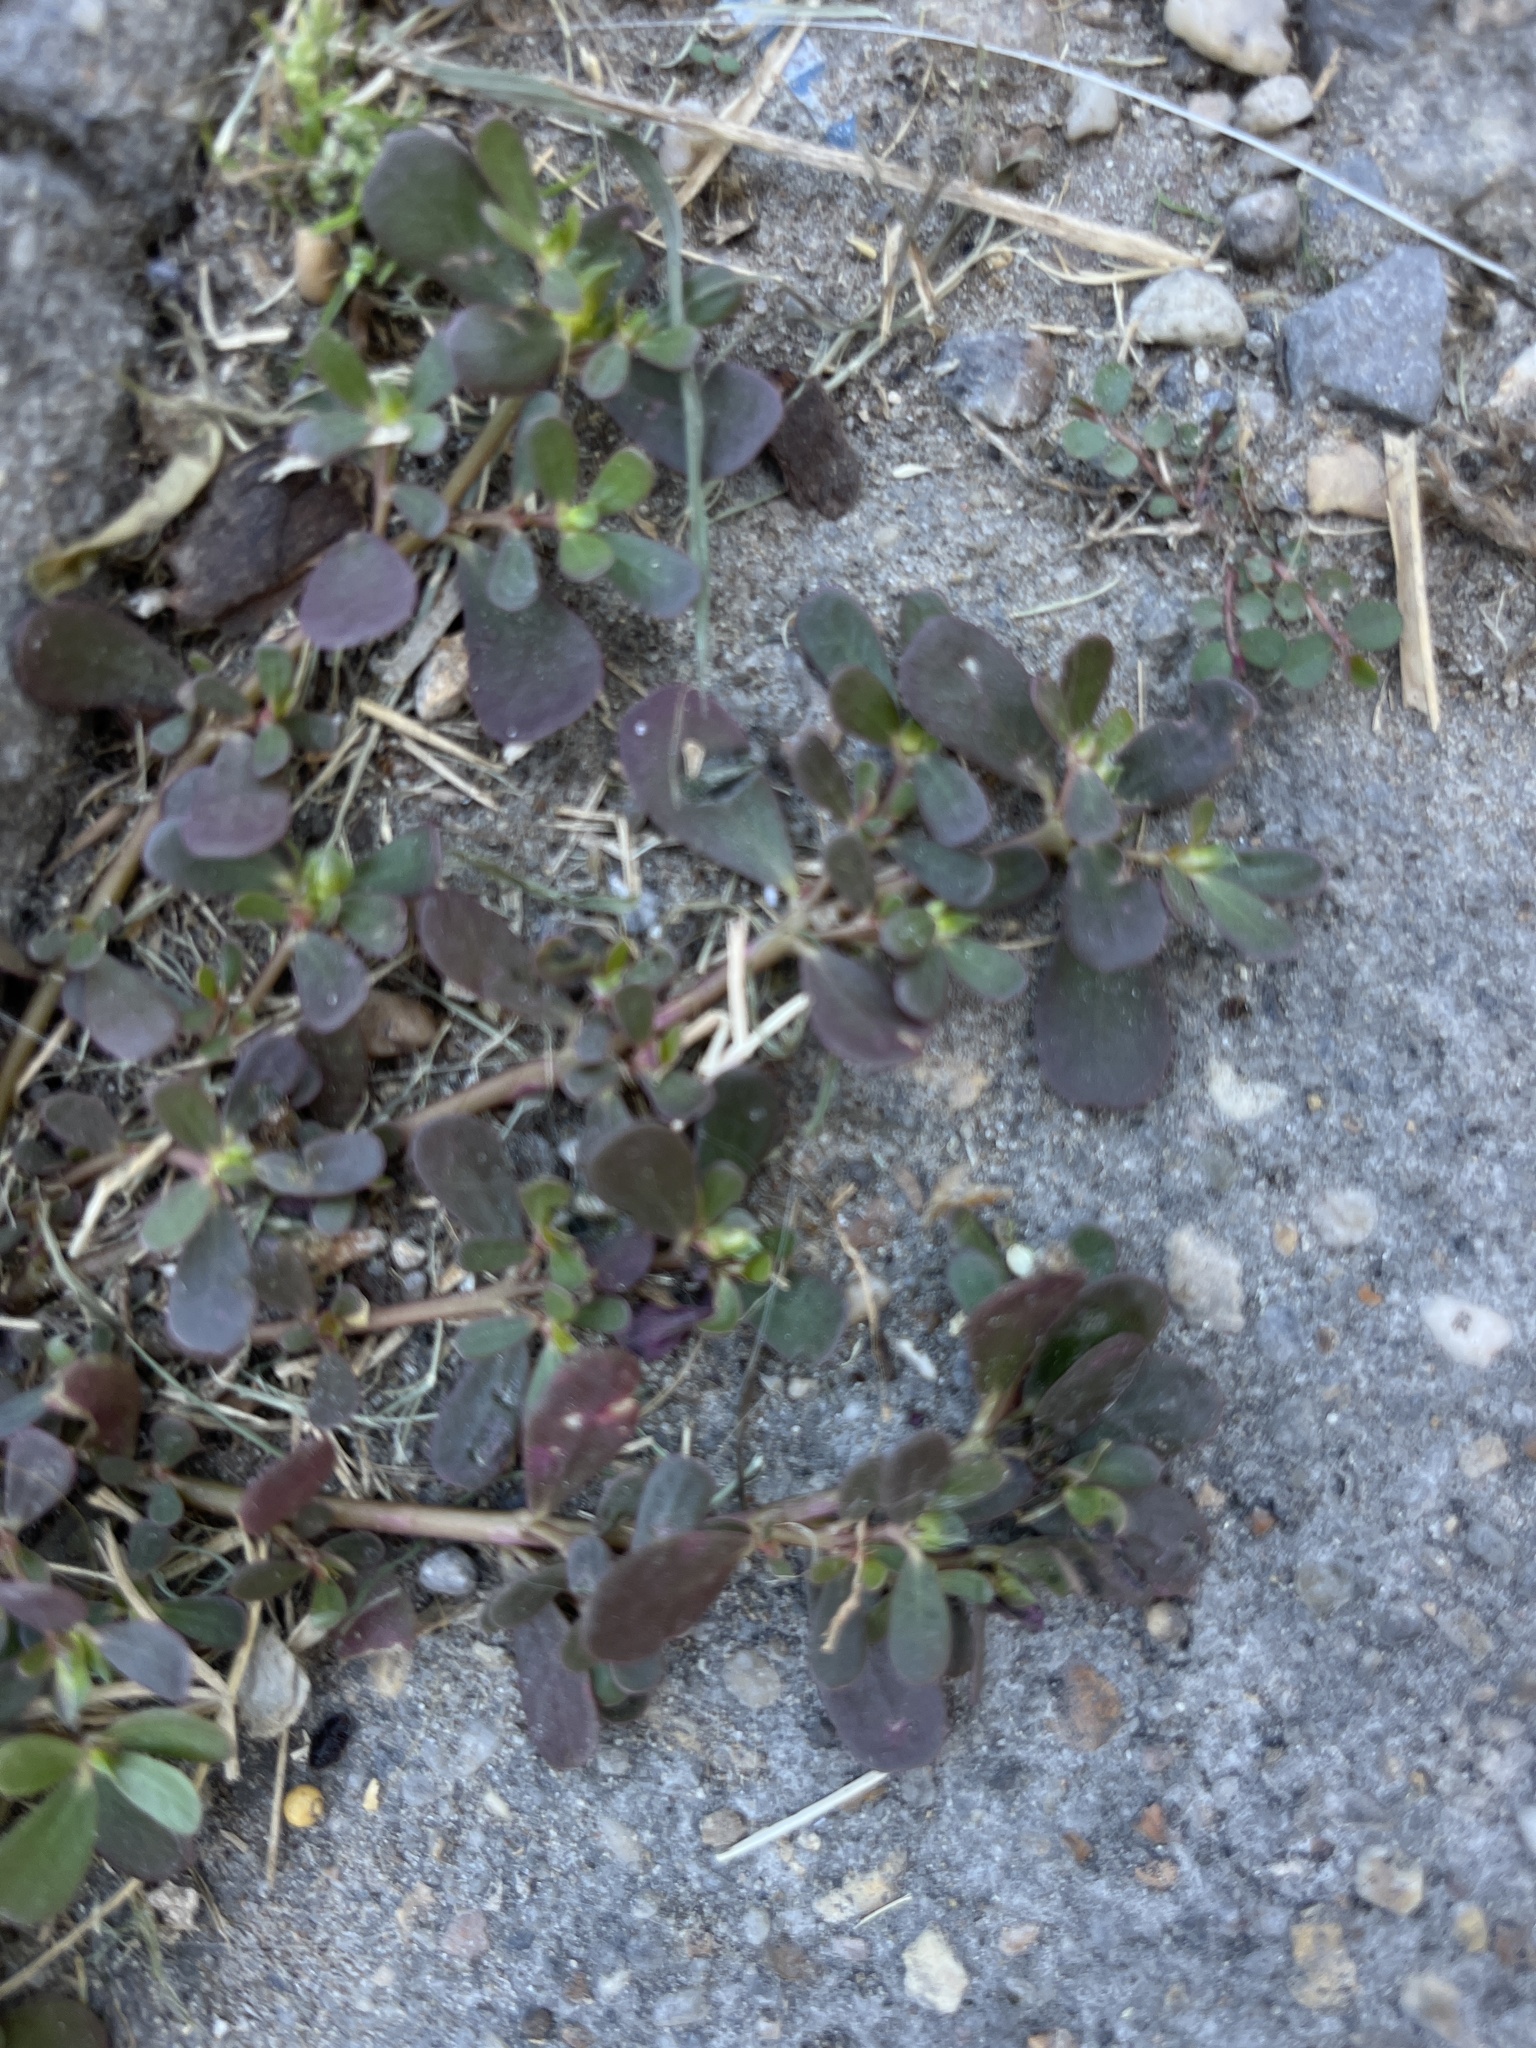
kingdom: Plantae
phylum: Tracheophyta
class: Magnoliopsida
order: Caryophyllales
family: Portulacaceae
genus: Portulaca
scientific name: Portulaca oleracea
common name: Common purslane
